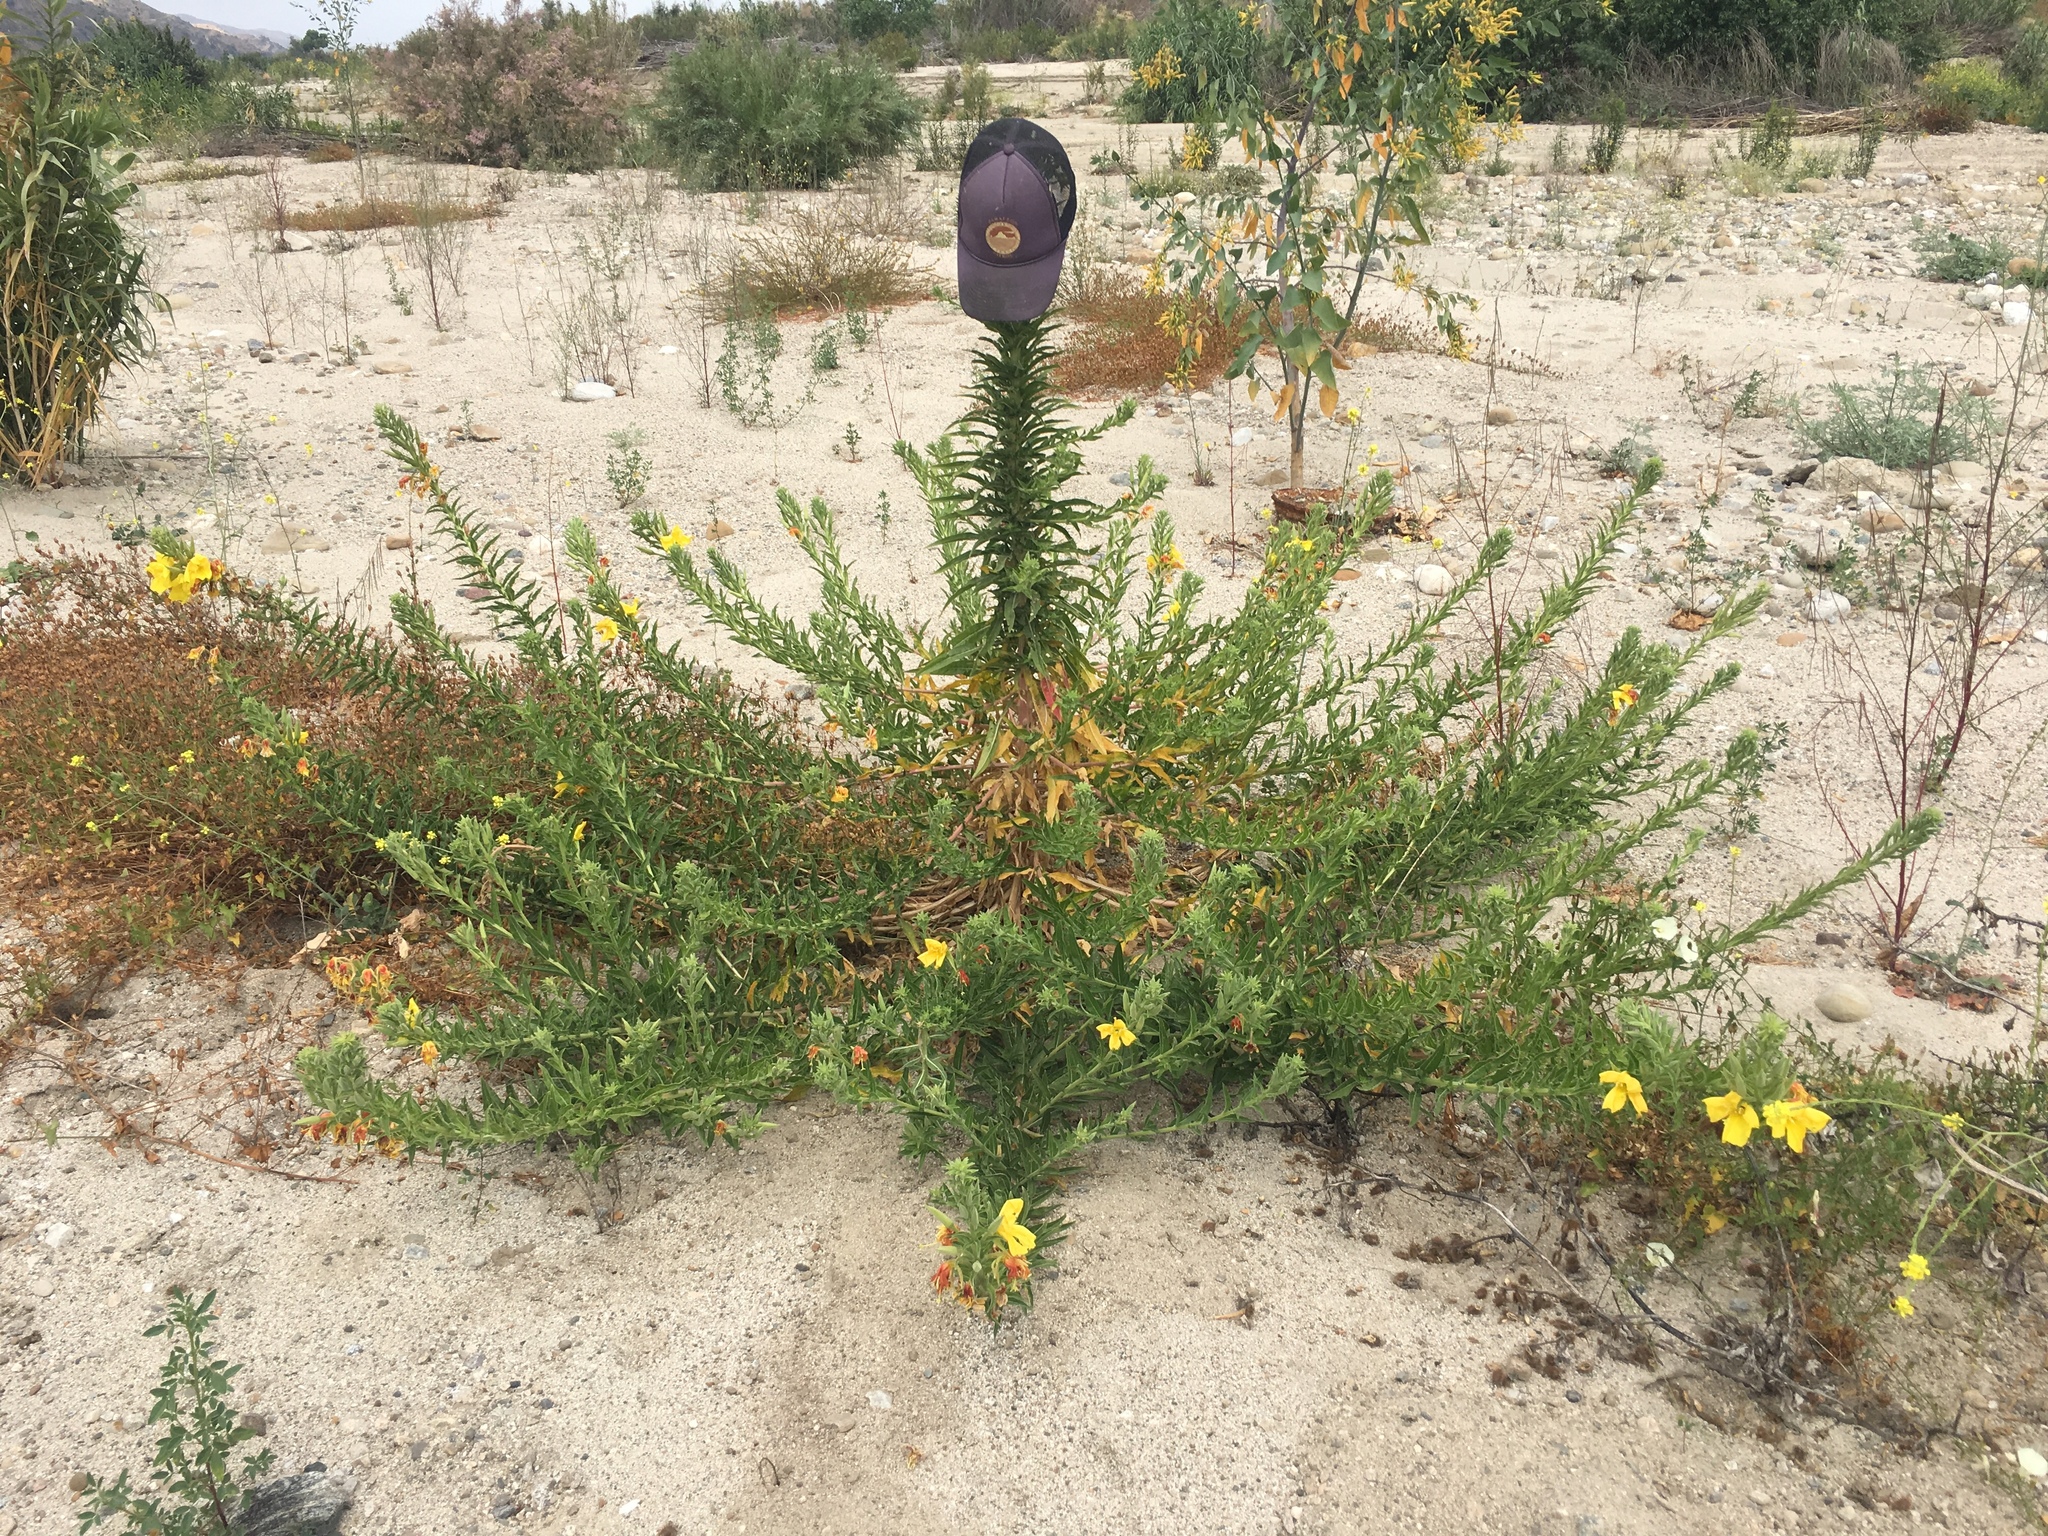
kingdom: Plantae
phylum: Tracheophyta
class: Magnoliopsida
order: Myrtales
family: Onagraceae
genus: Oenothera
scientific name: Oenothera elata
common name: Hooker's evening-primrose
